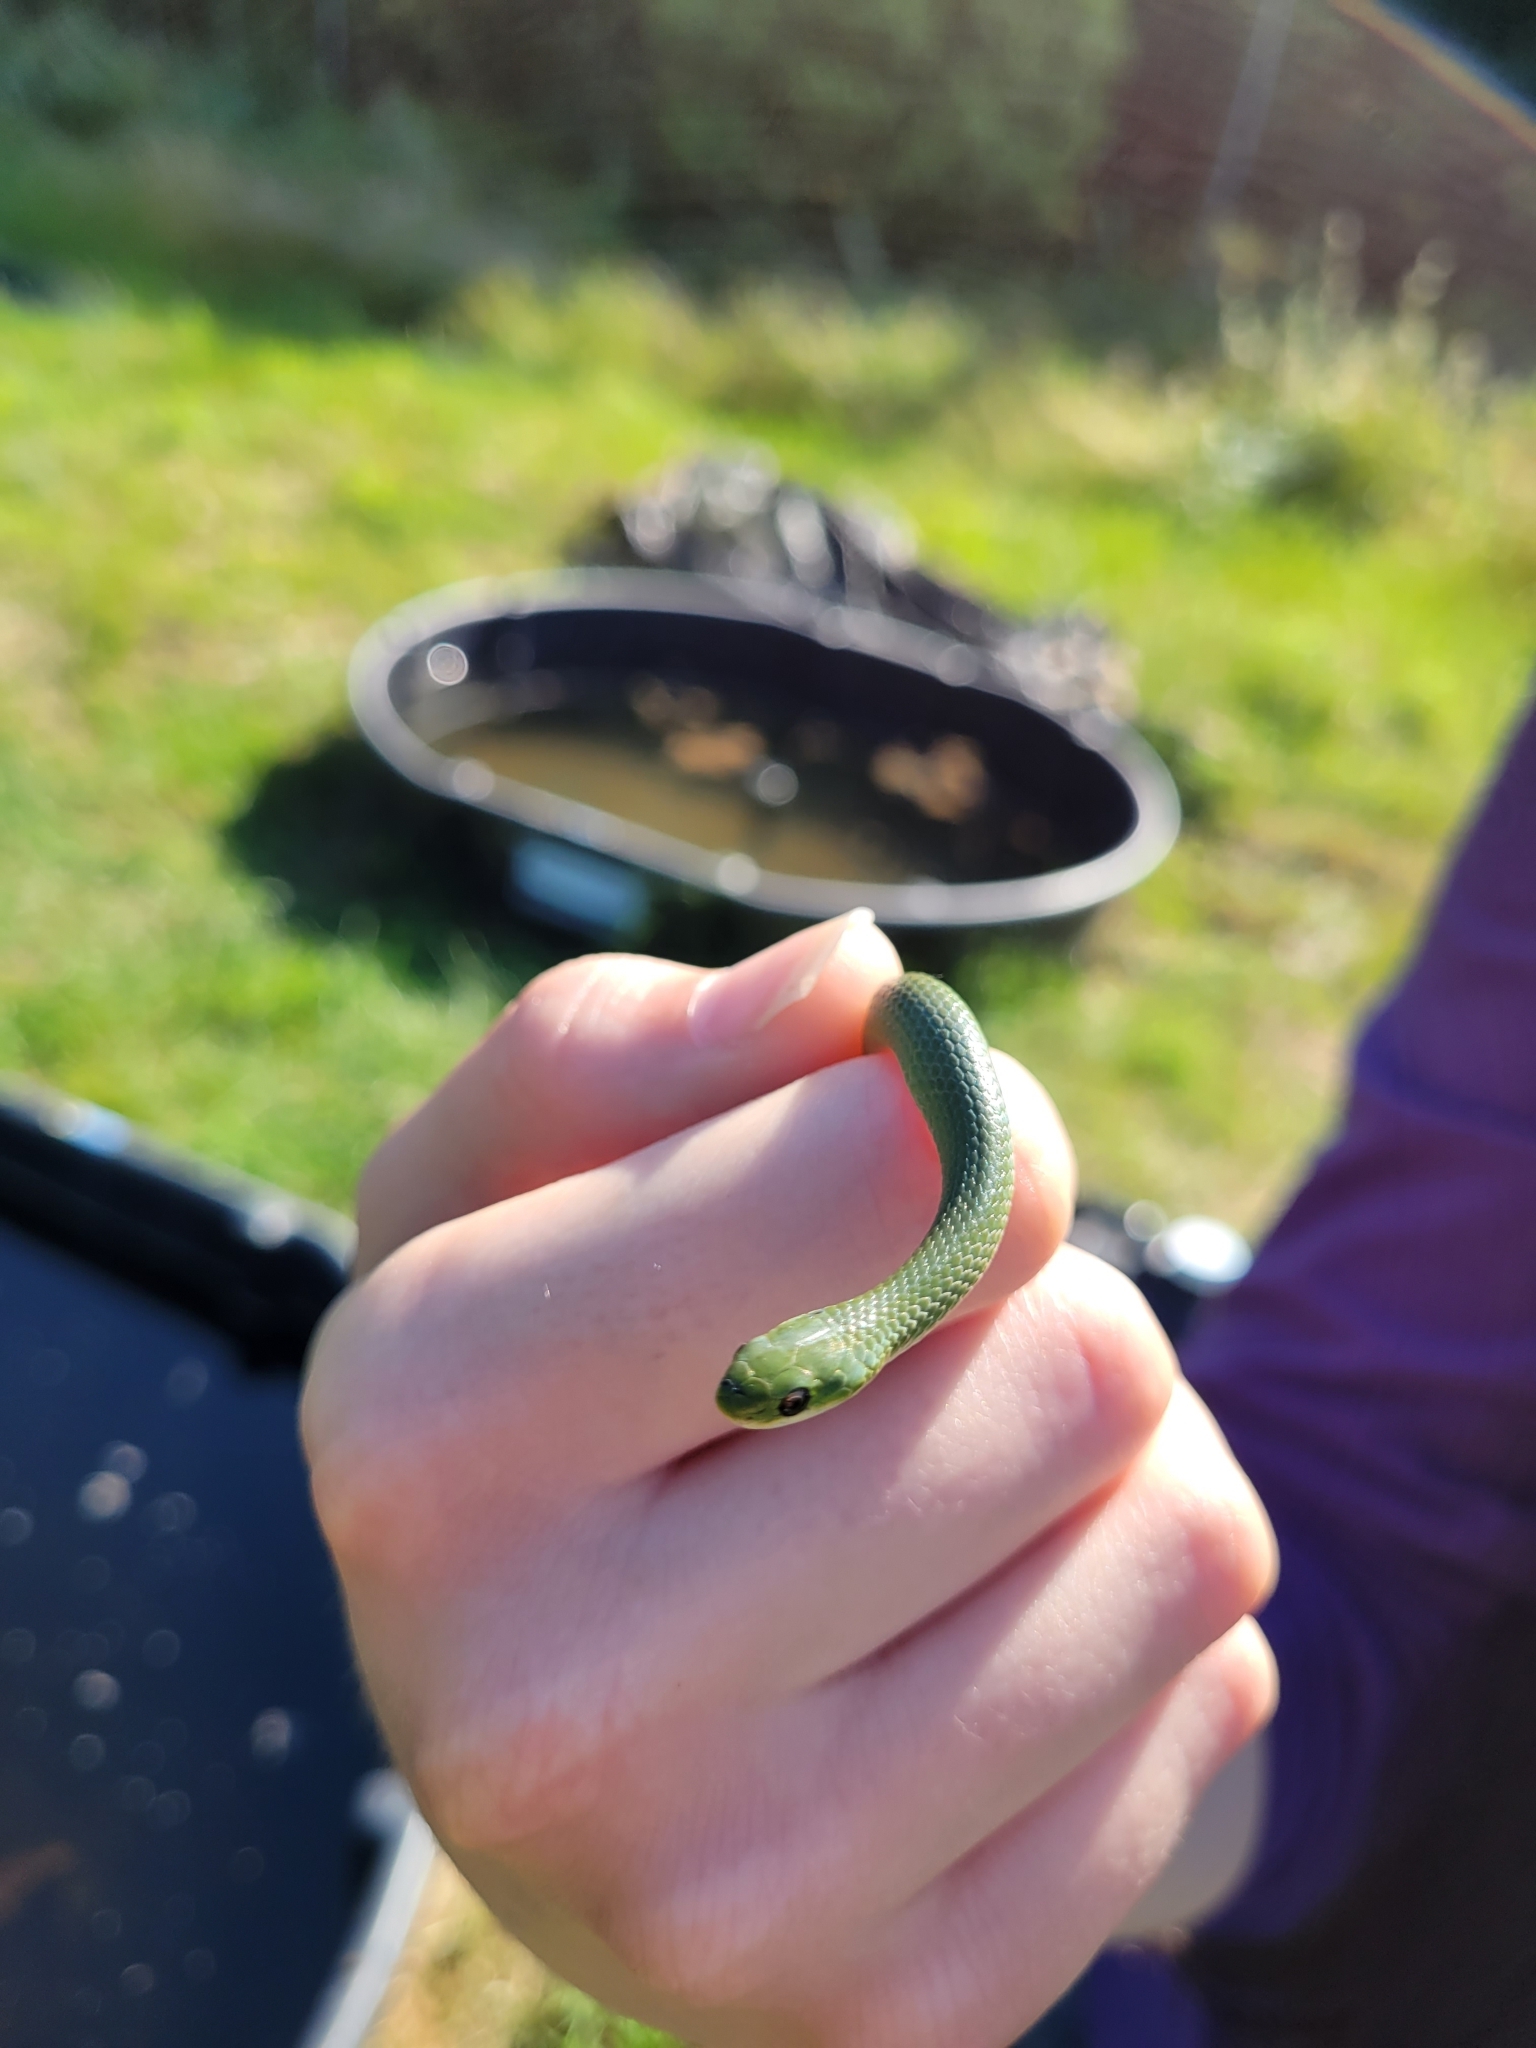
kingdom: Animalia
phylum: Chordata
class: Squamata
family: Colubridae
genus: Opheodrys
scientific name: Opheodrys vernalis
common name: Smooth green snake
